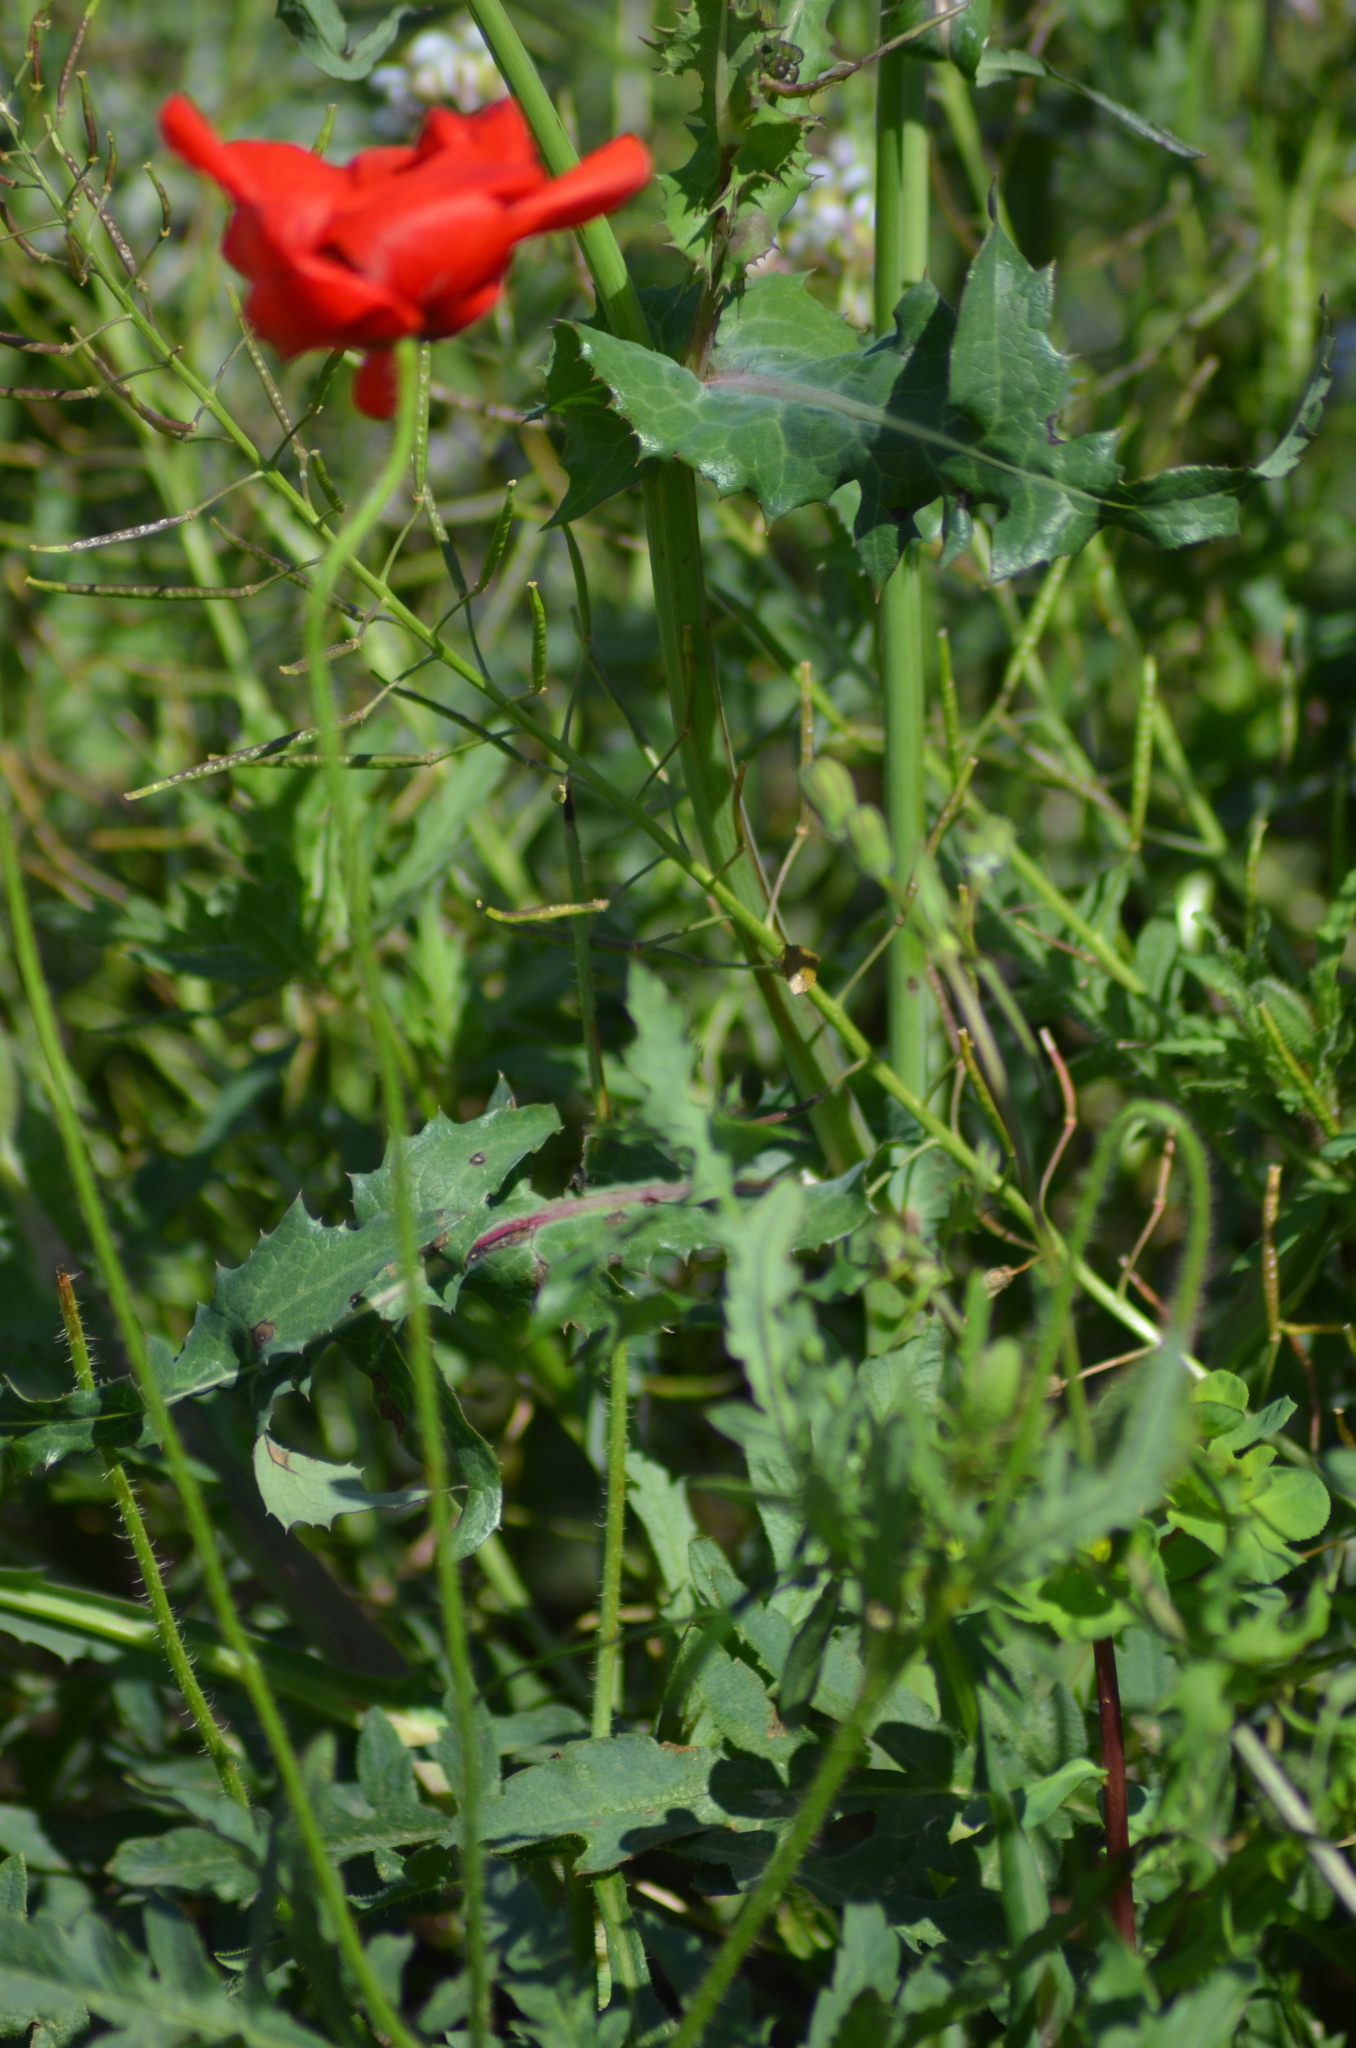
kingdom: Plantae
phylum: Tracheophyta
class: Magnoliopsida
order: Ranunculales
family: Papaveraceae
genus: Papaver
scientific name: Papaver rhoeas
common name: Corn poppy
